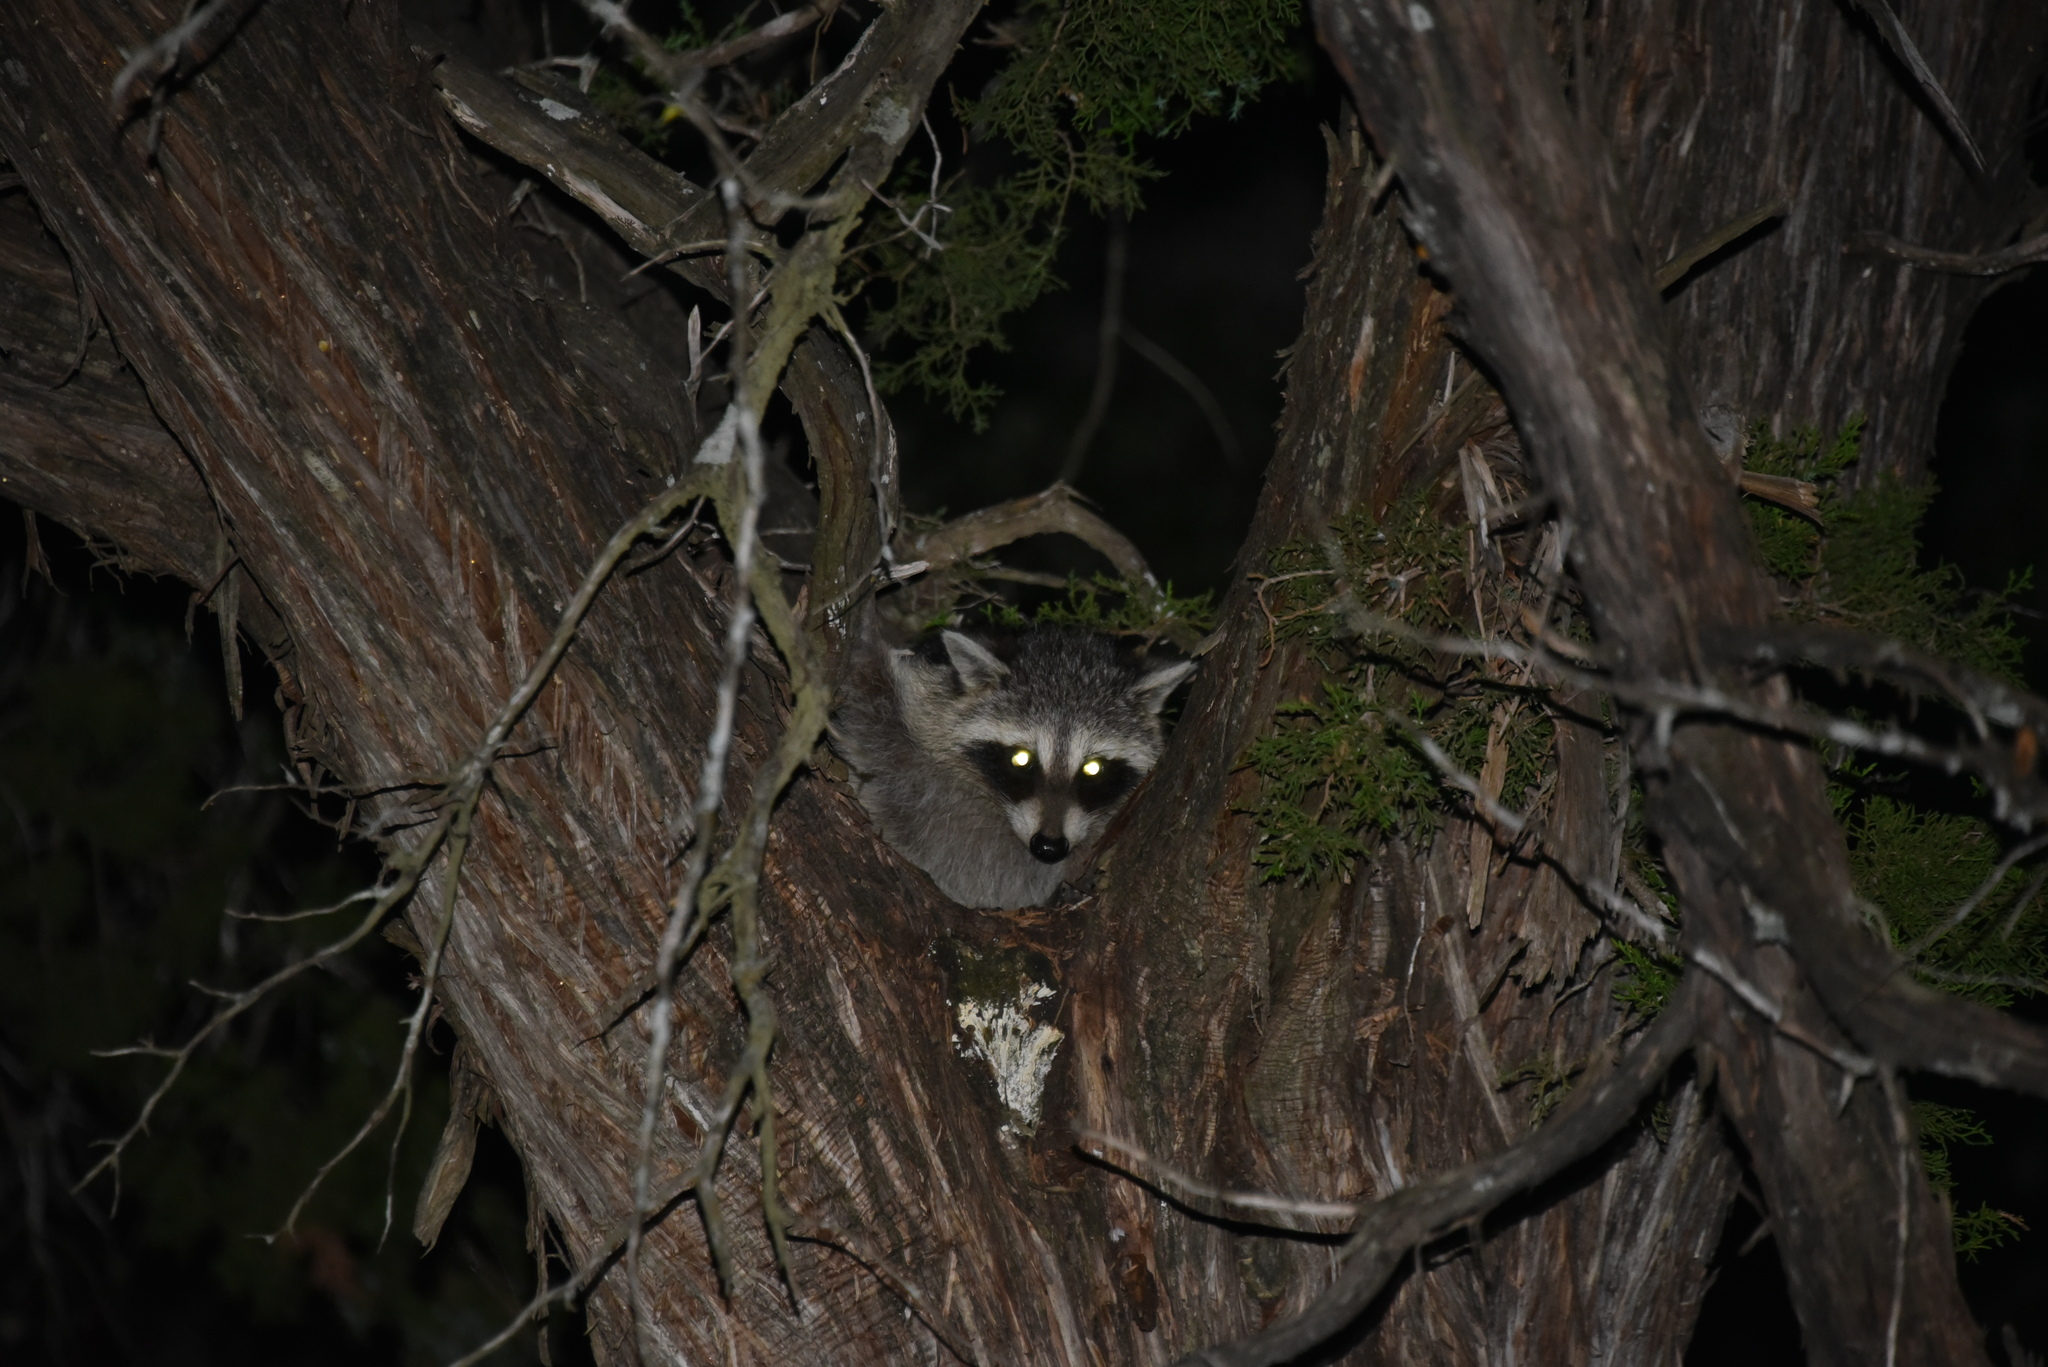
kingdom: Animalia
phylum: Chordata
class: Mammalia
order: Carnivora
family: Procyonidae
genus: Procyon
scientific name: Procyon lotor
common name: Raccoon
